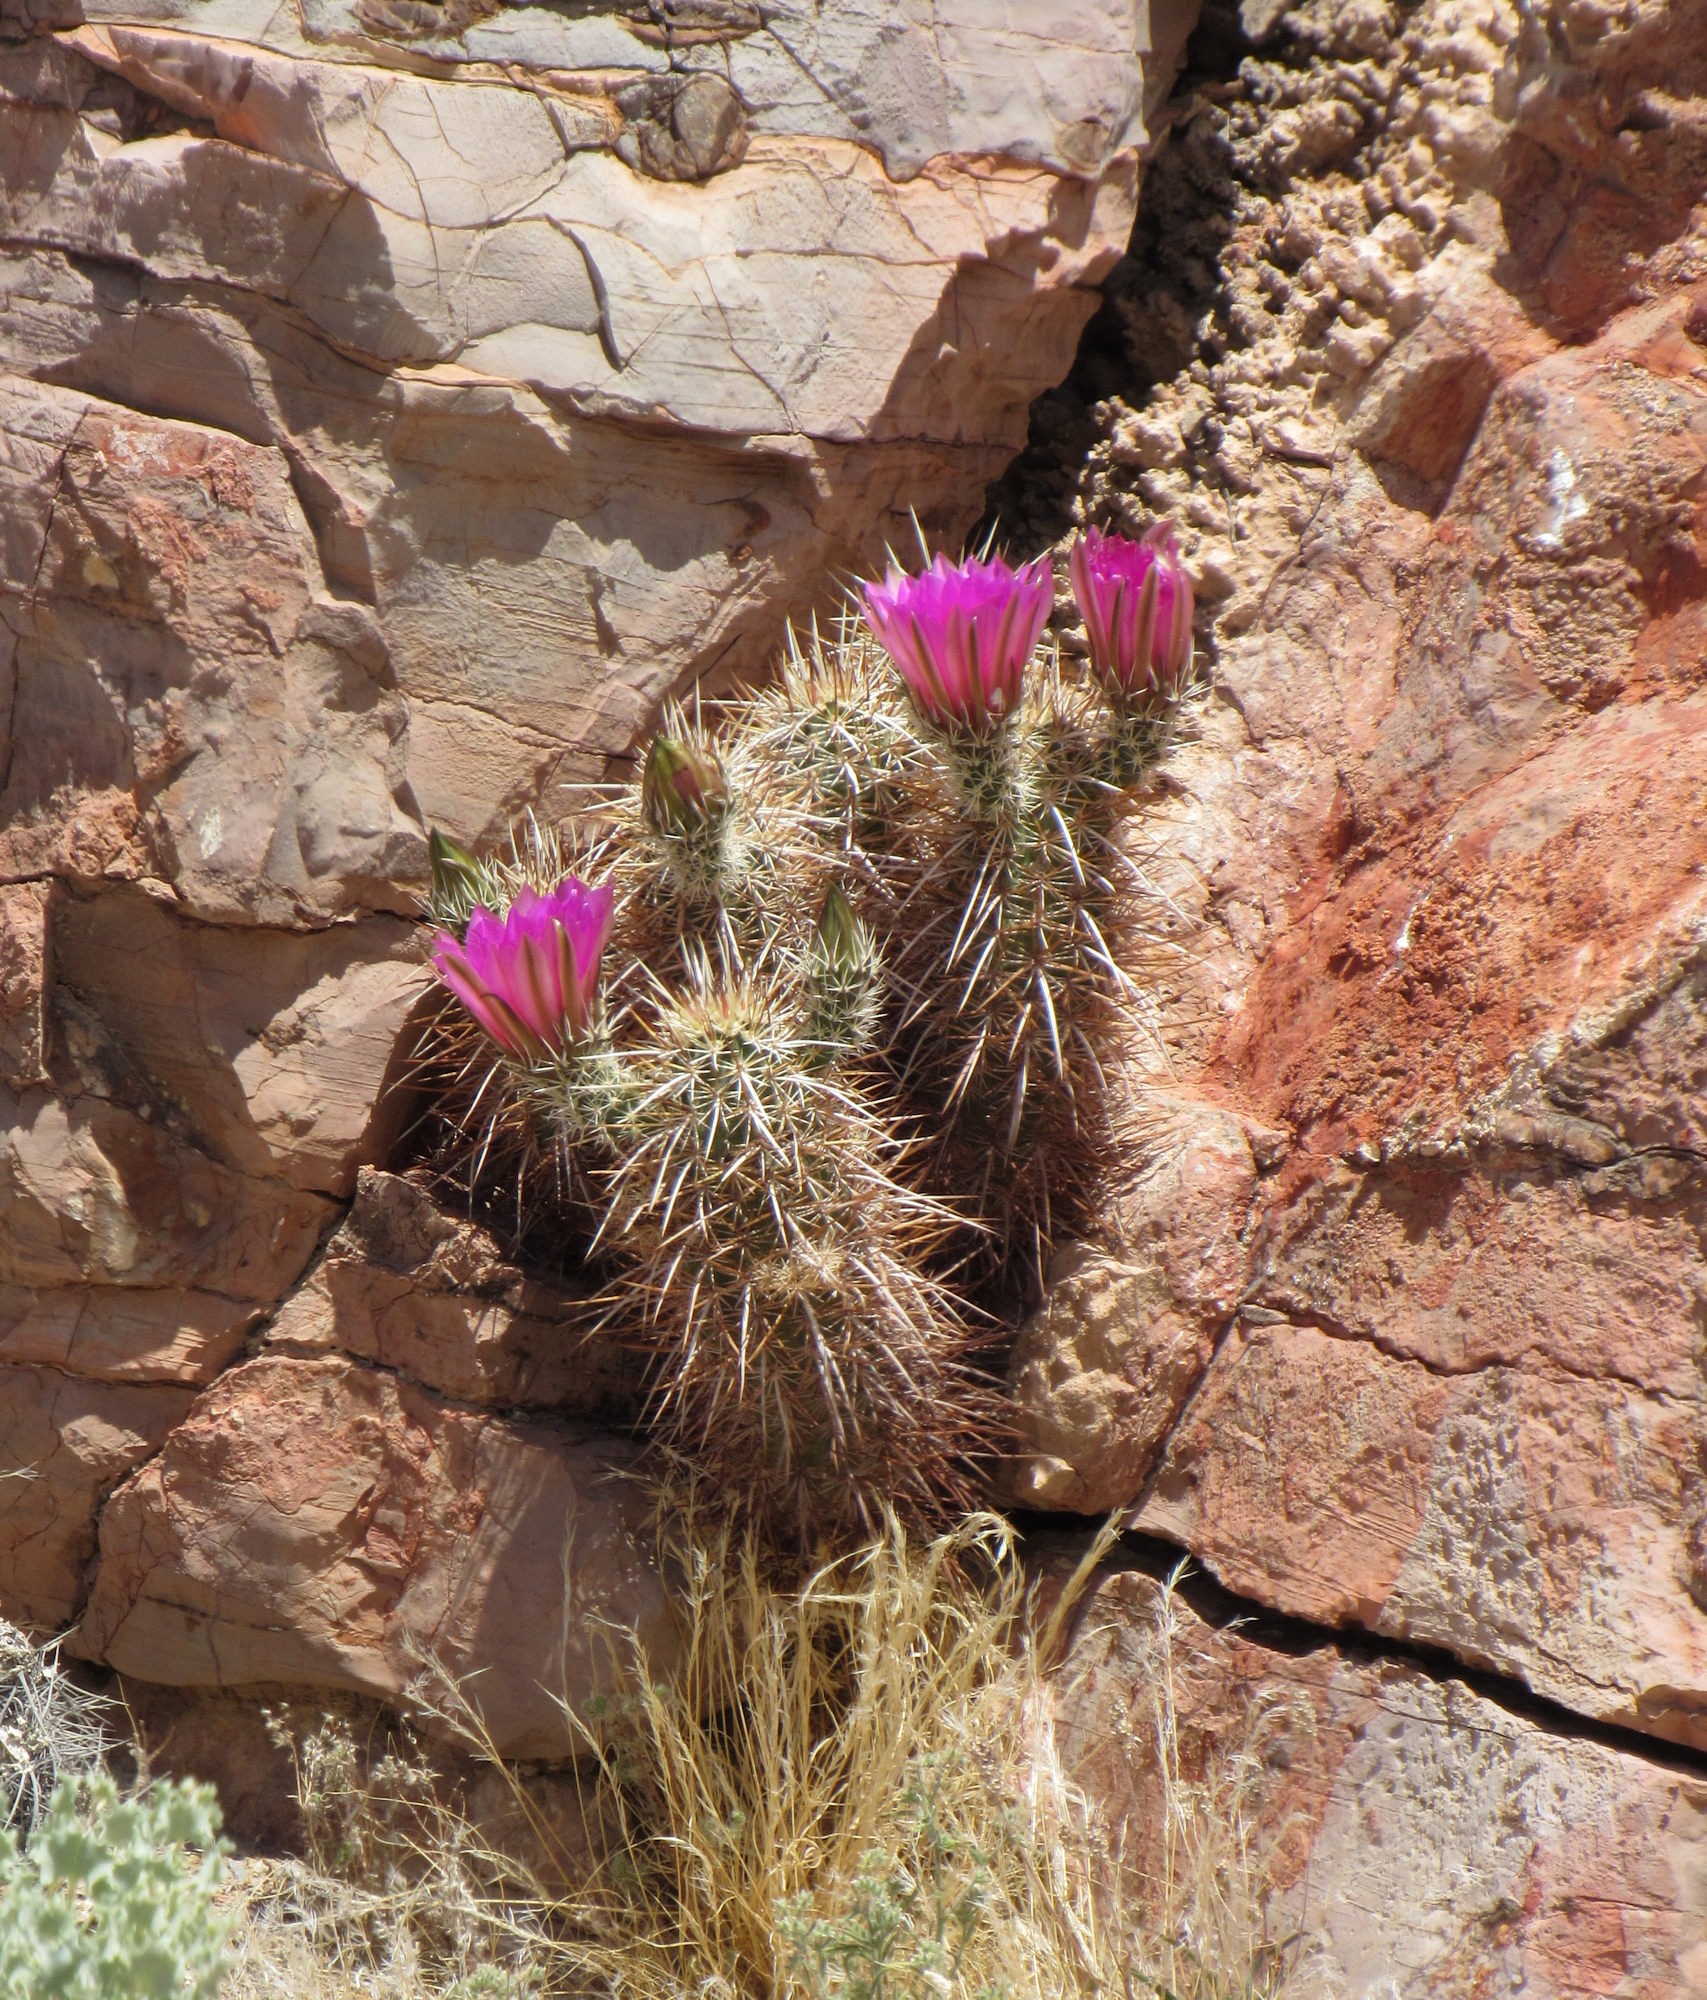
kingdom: Plantae
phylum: Tracheophyta
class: Magnoliopsida
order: Caryophyllales
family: Cactaceae
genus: Echinocereus
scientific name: Echinocereus engelmannii
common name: Engelmann's hedgehog cactus
